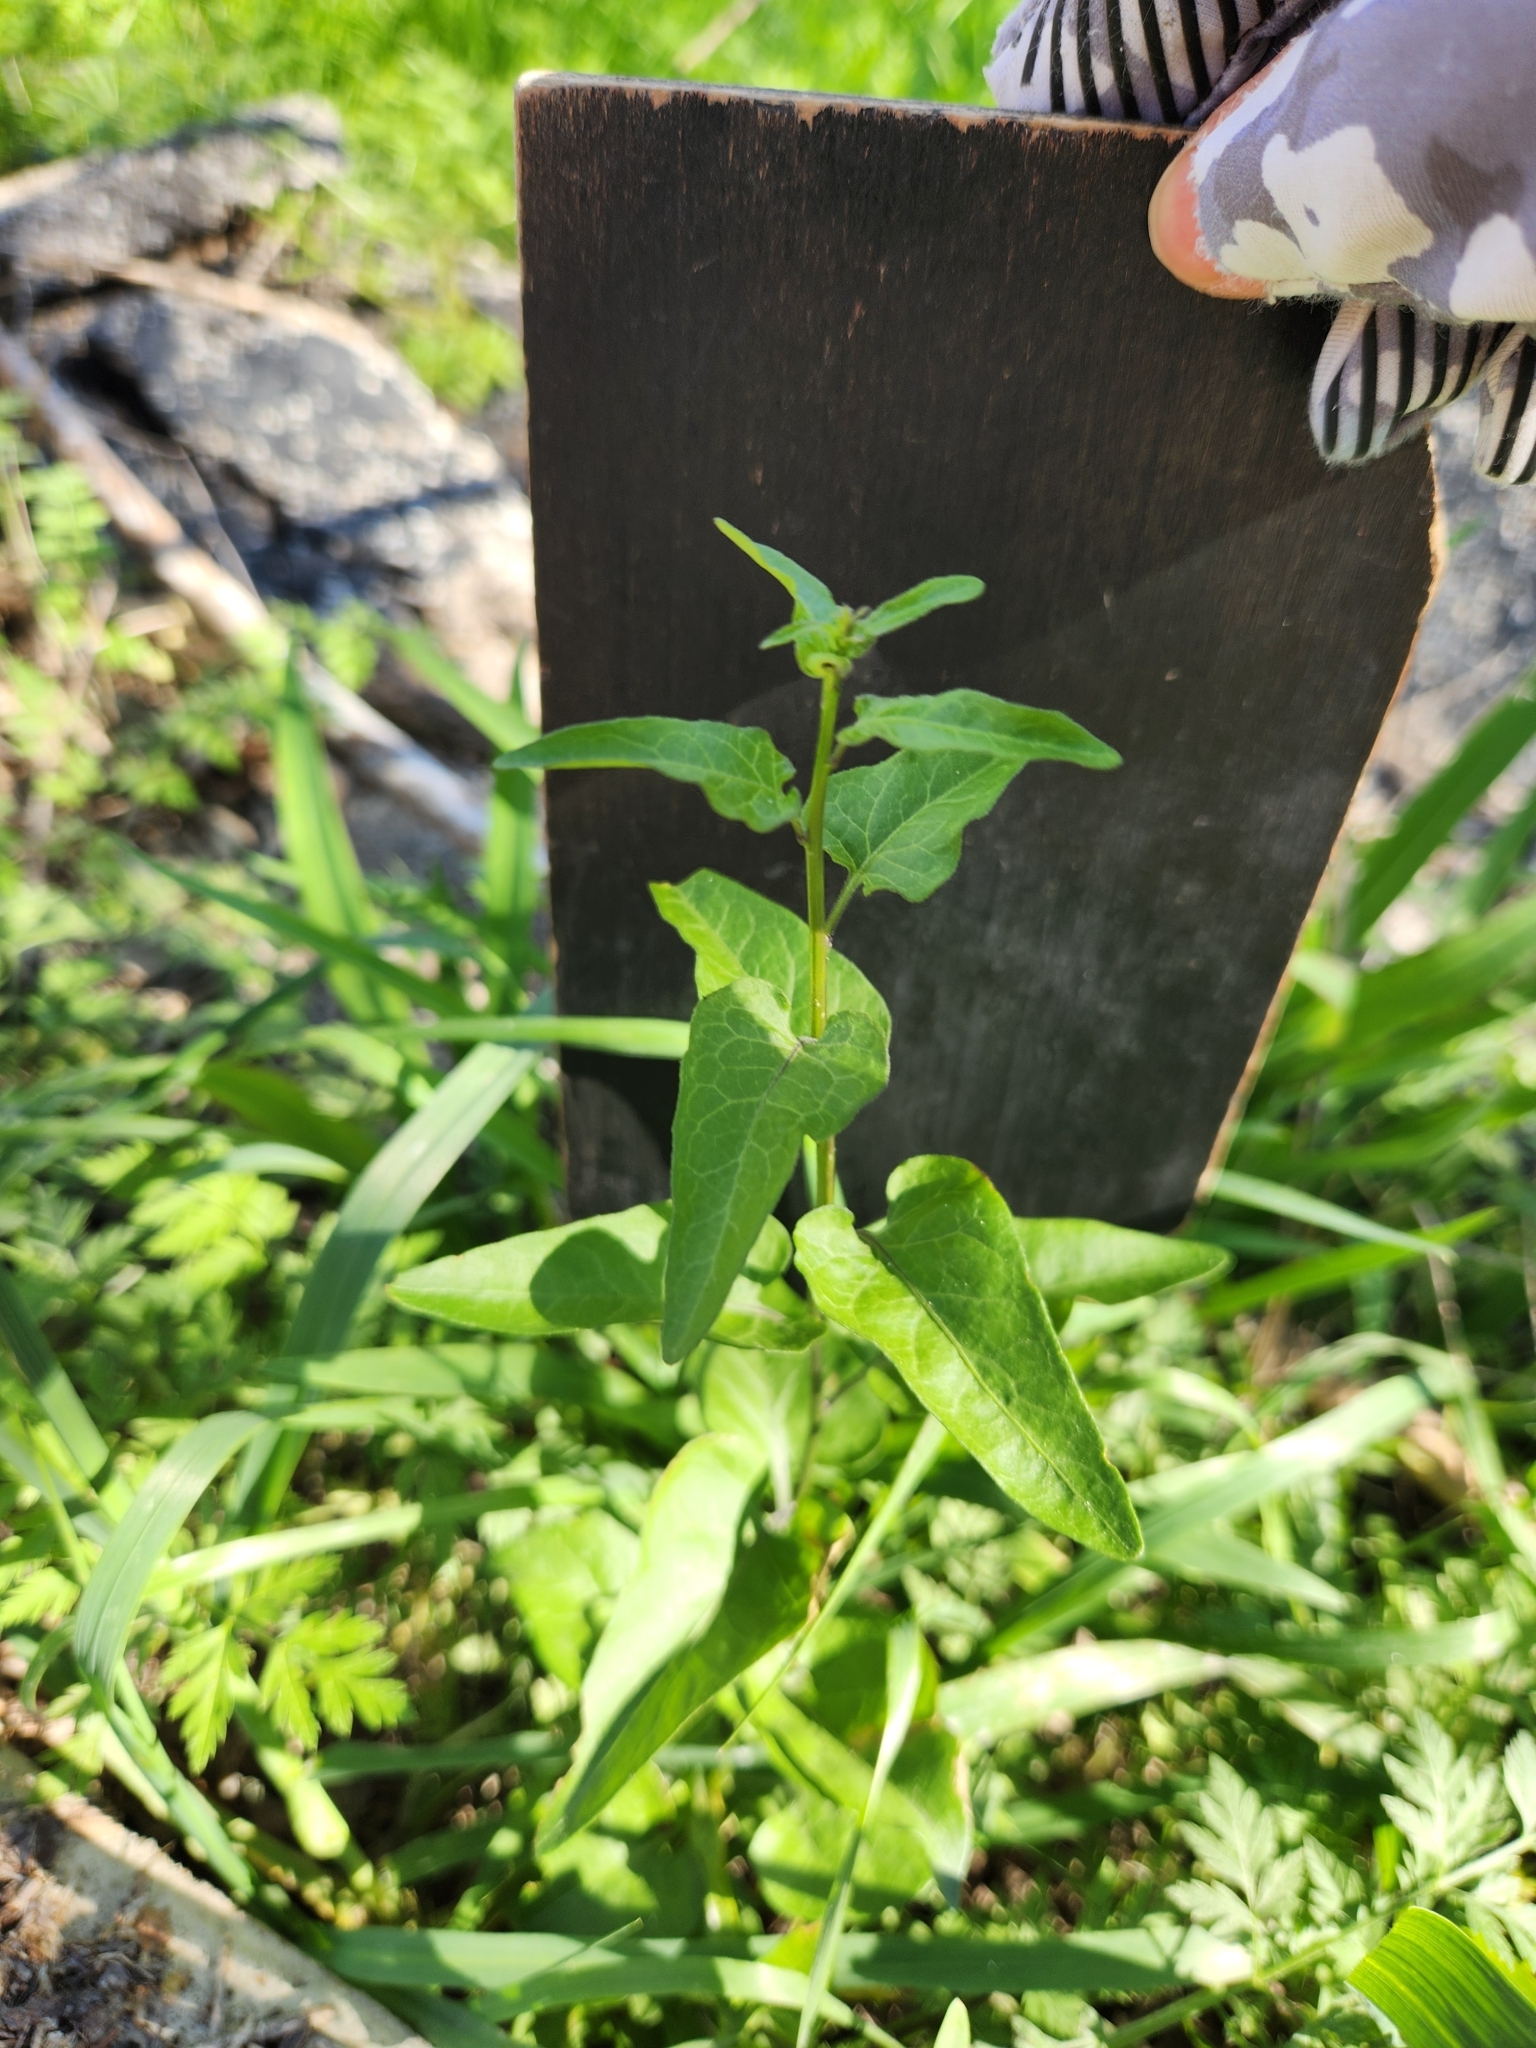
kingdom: Plantae
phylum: Tracheophyta
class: Magnoliopsida
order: Solanales
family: Solanaceae
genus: Solanum
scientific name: Solanum triquetrum
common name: Texas nightshade
